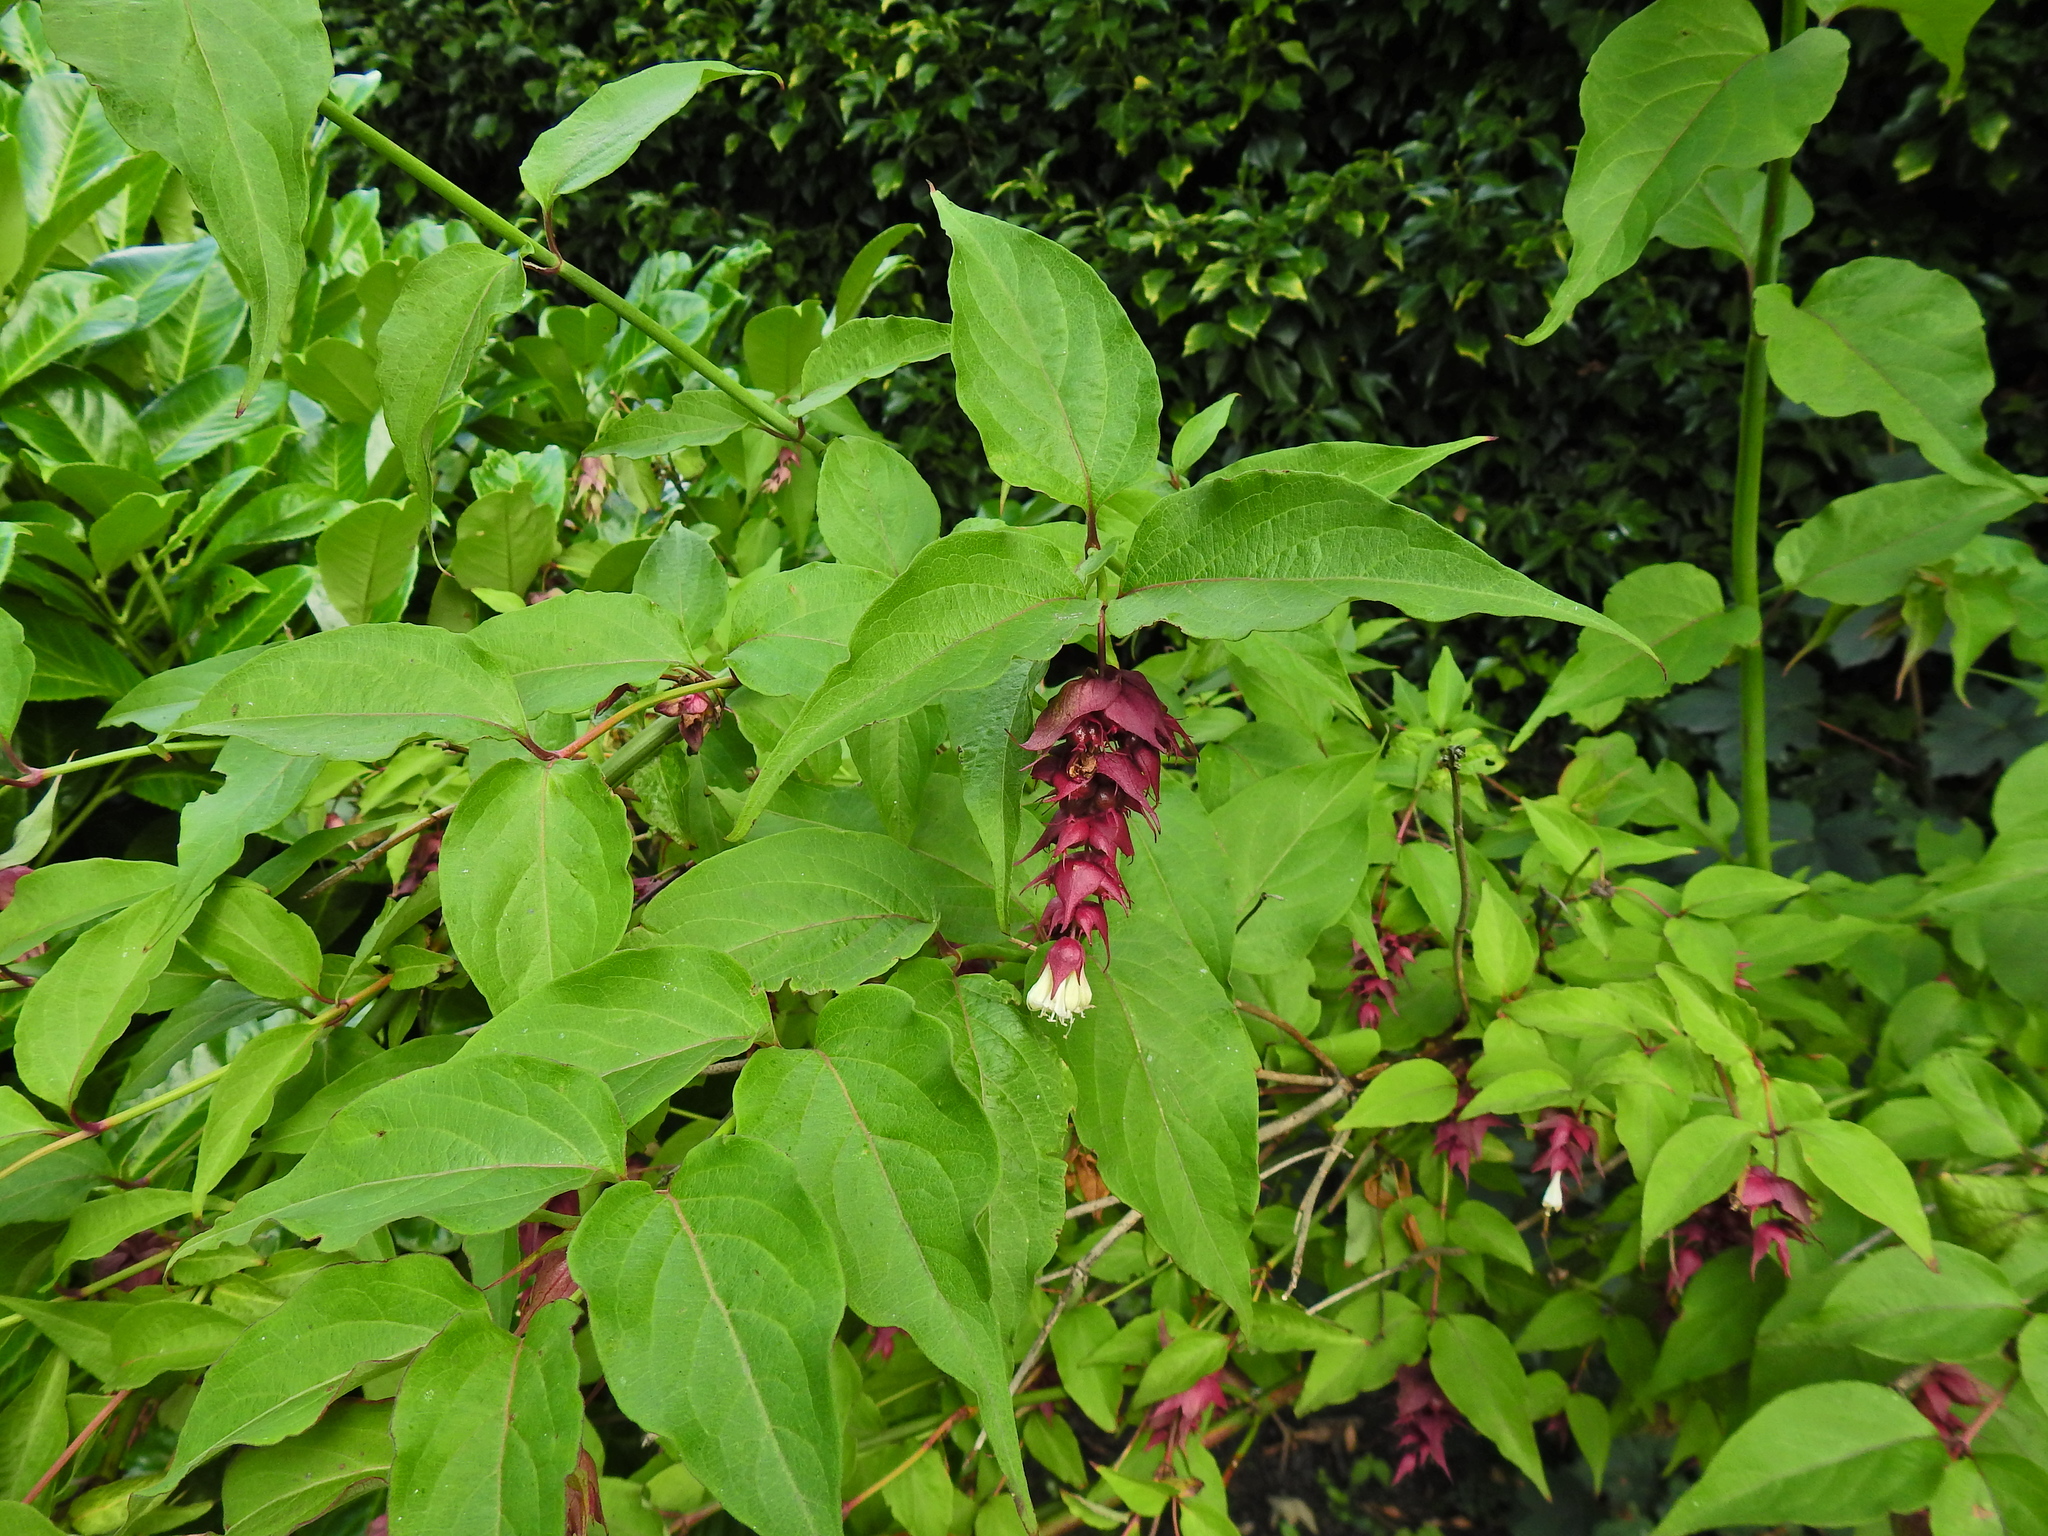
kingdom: Plantae
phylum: Tracheophyta
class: Magnoliopsida
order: Dipsacales
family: Caprifoliaceae
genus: Leycesteria
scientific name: Leycesteria formosa
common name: Himalayan honeysuckle
